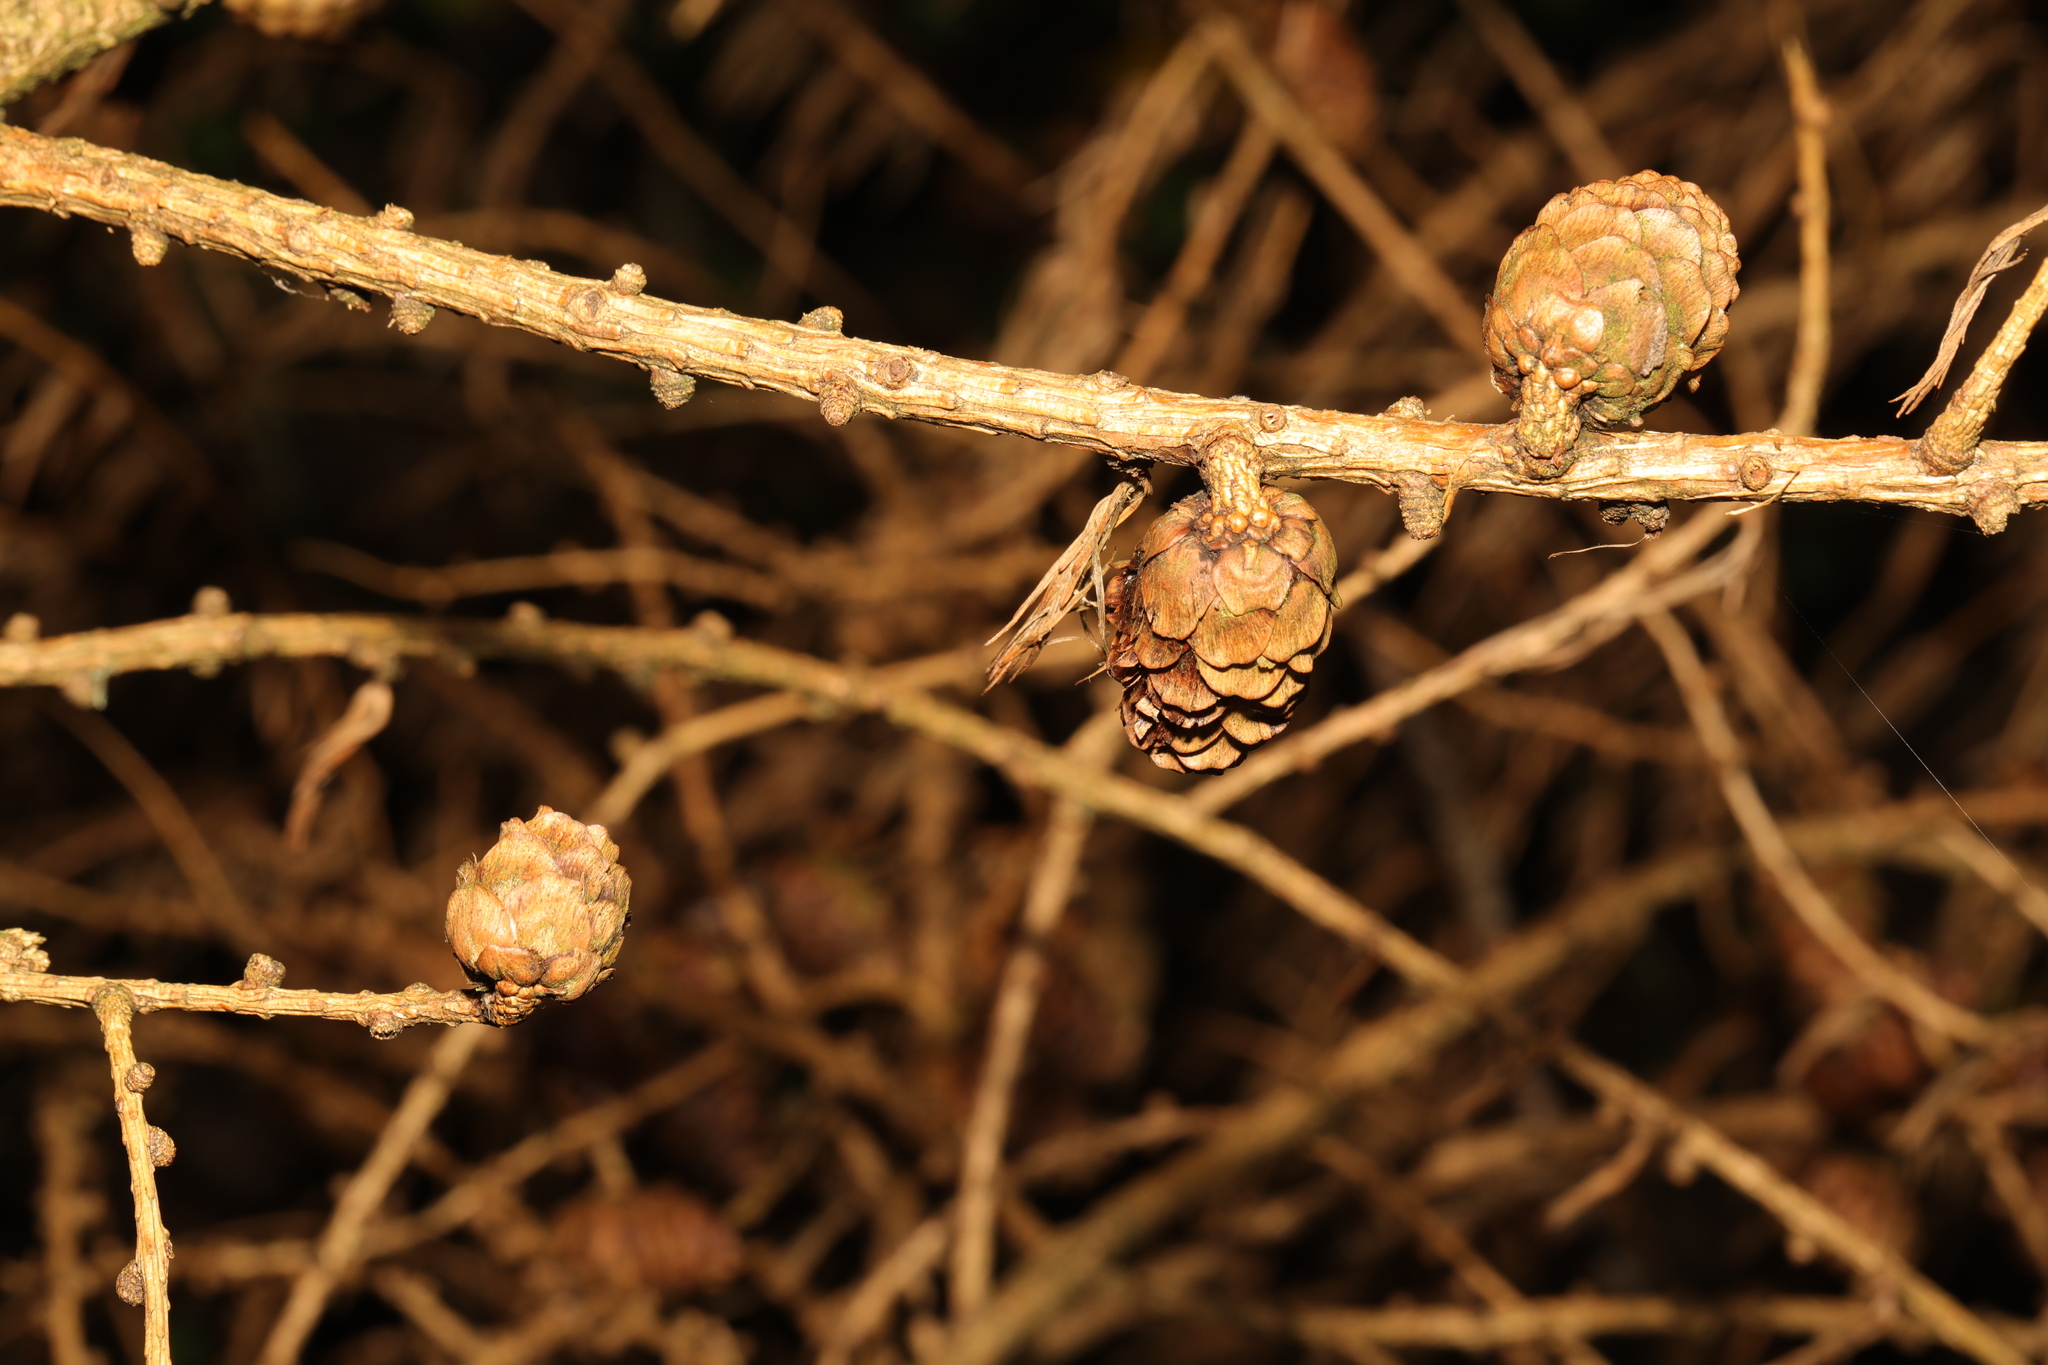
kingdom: Plantae
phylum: Tracheophyta
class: Pinopsida
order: Pinales
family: Pinaceae
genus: Larix
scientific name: Larix decidua
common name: European larch
